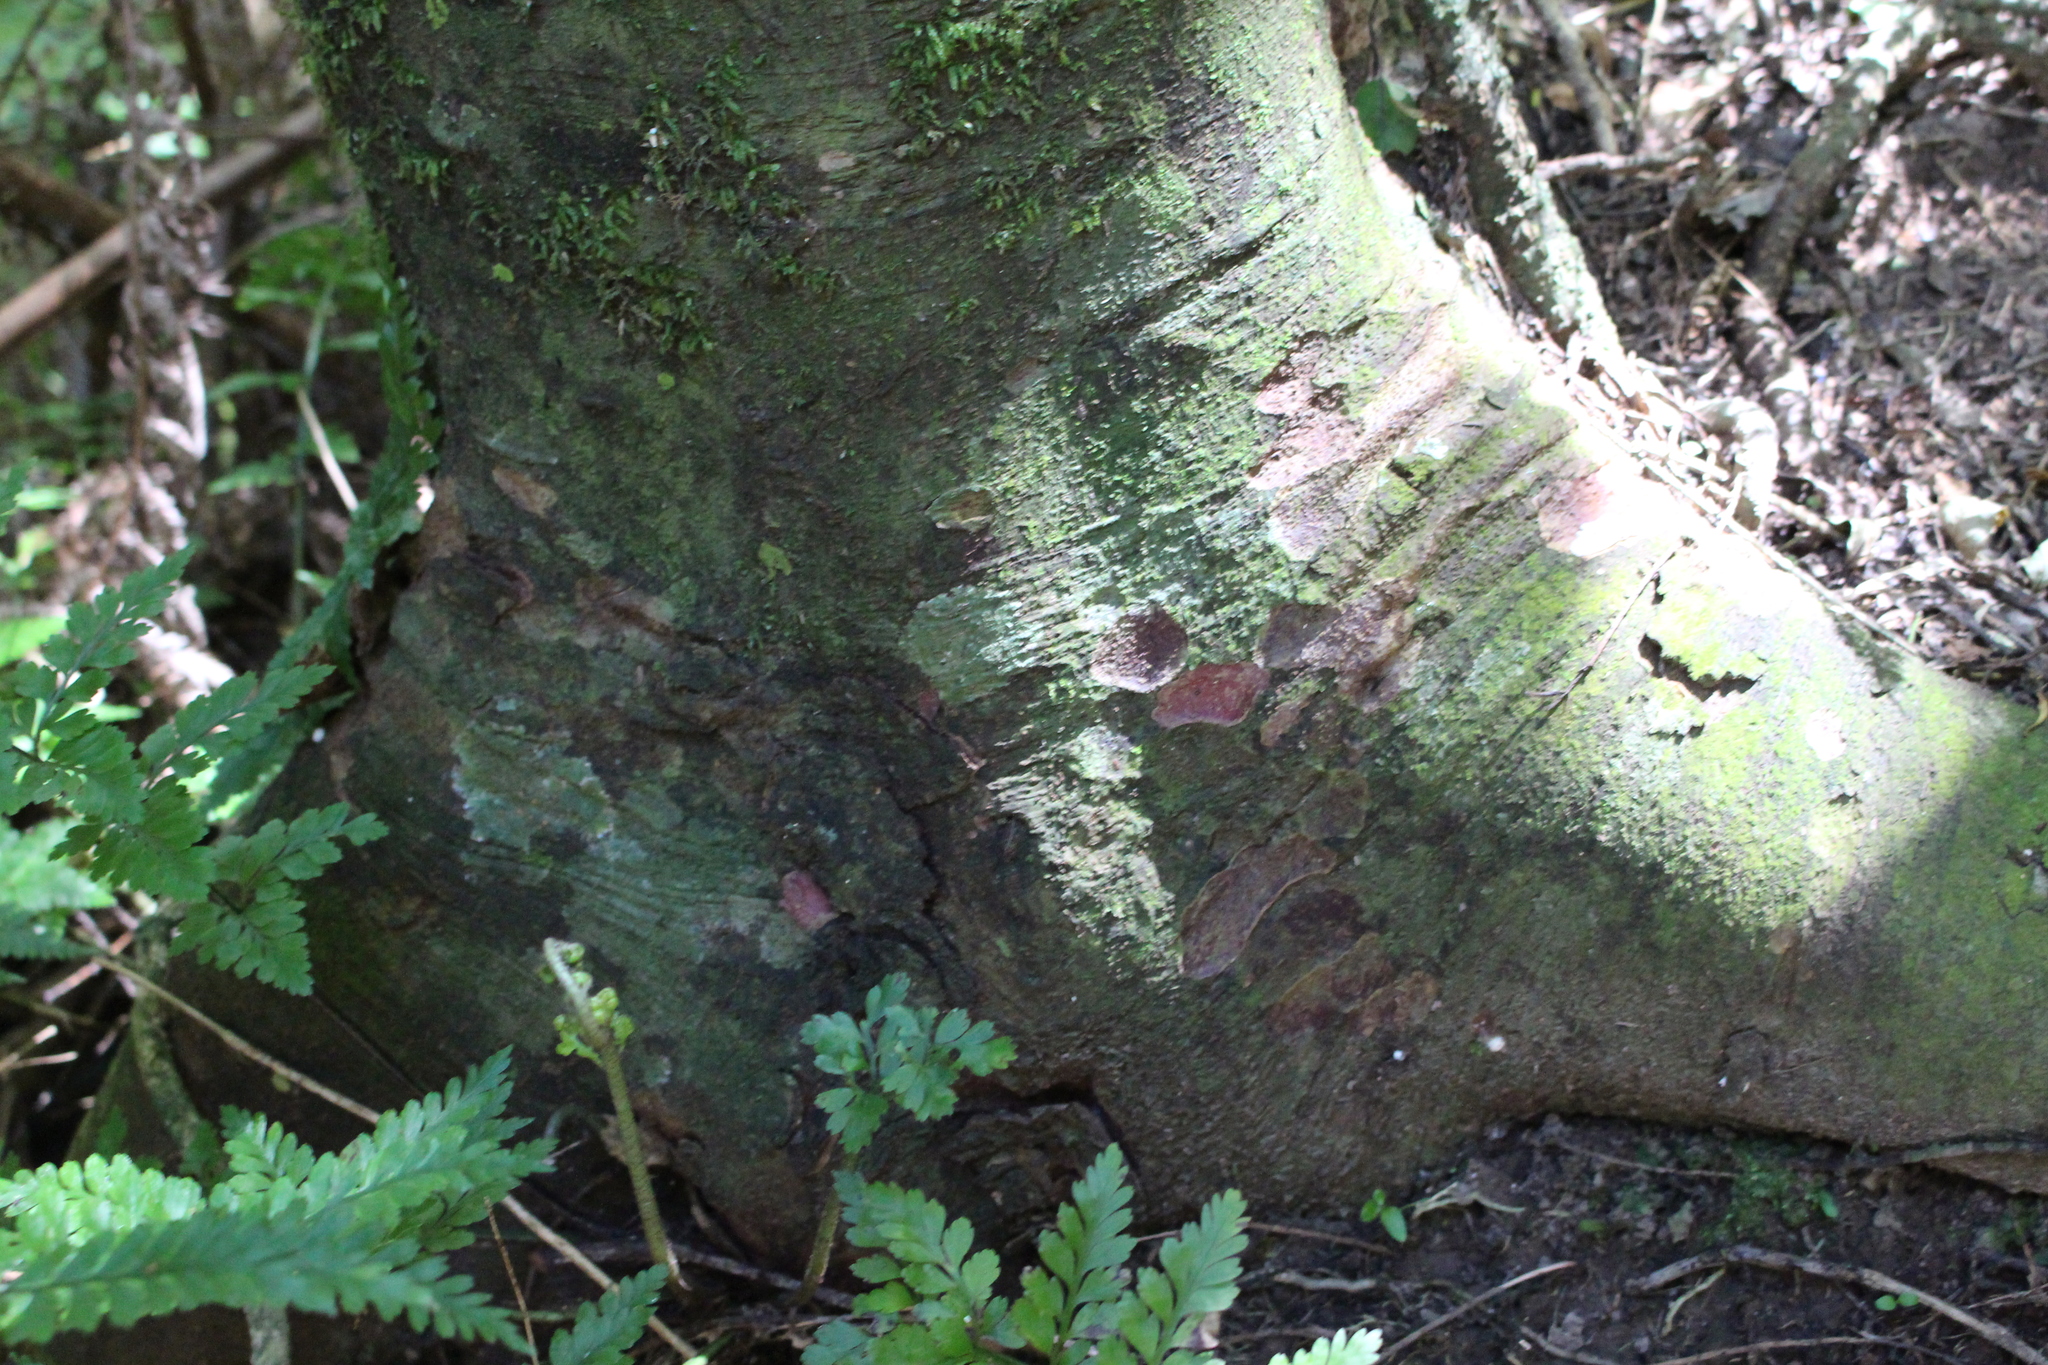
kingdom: Plantae
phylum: Tracheophyta
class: Pinopsida
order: Pinales
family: Podocarpaceae
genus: Prumnopitys
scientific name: Prumnopitys taxifolia
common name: Matai
